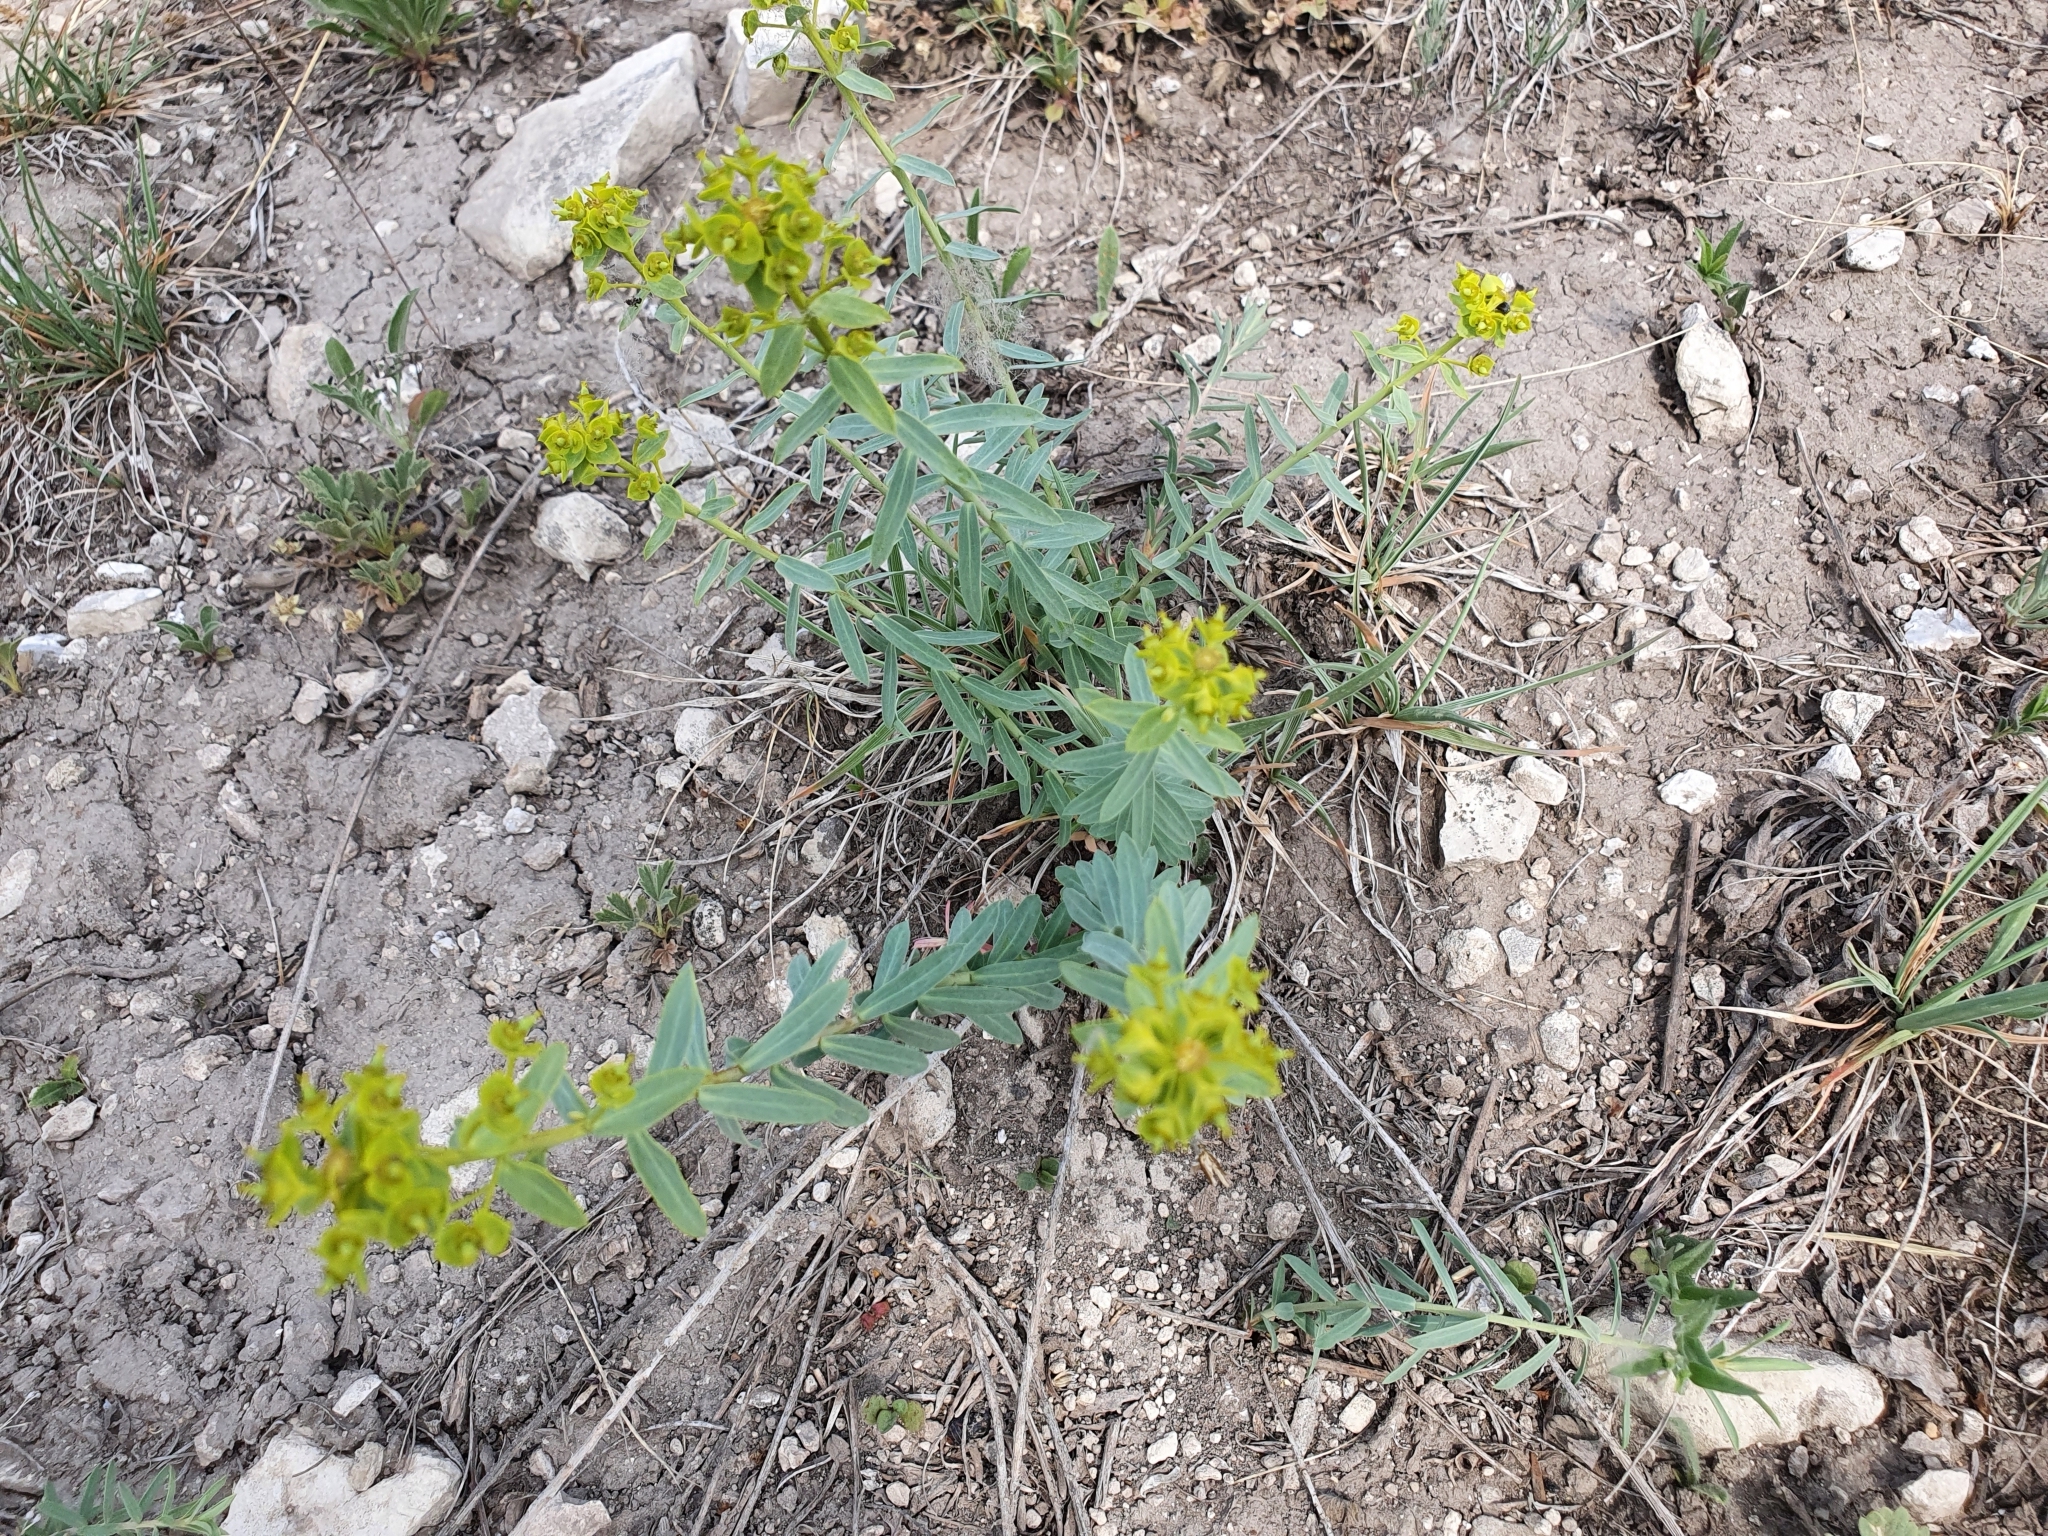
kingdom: Plantae
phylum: Tracheophyta
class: Magnoliopsida
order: Malpighiales
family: Euphorbiaceae
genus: Euphorbia
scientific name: Euphorbia seguieriana
